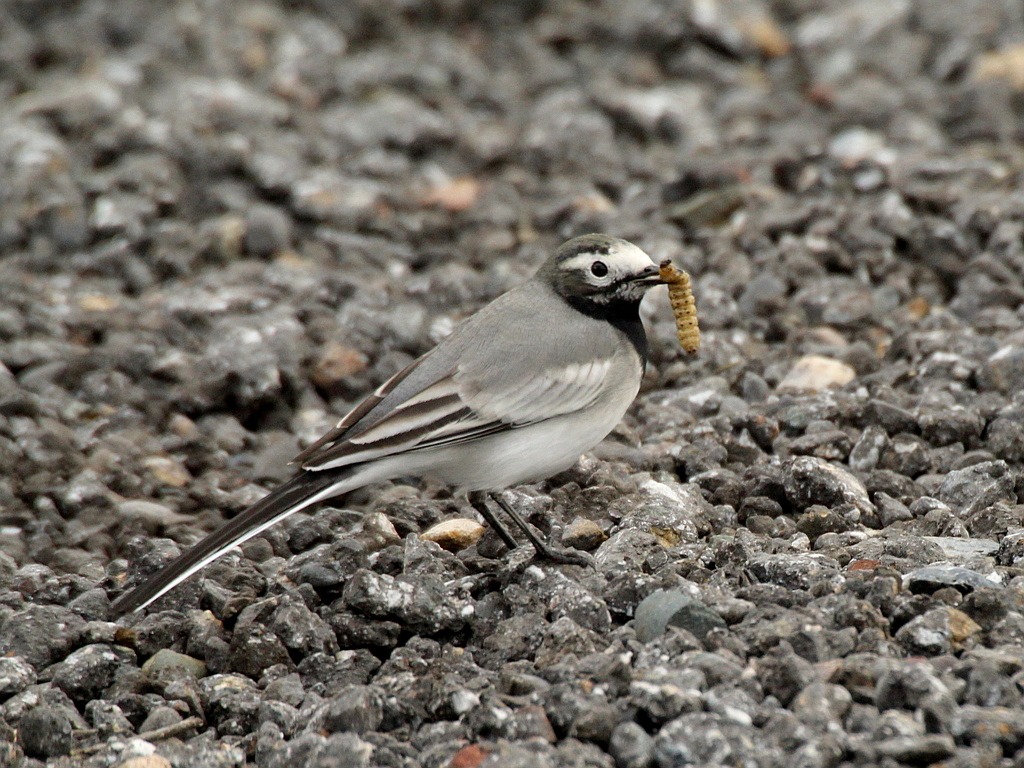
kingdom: Animalia
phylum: Chordata
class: Aves
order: Passeriformes
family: Motacillidae
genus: Motacilla
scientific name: Motacilla alba
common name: White wagtail
